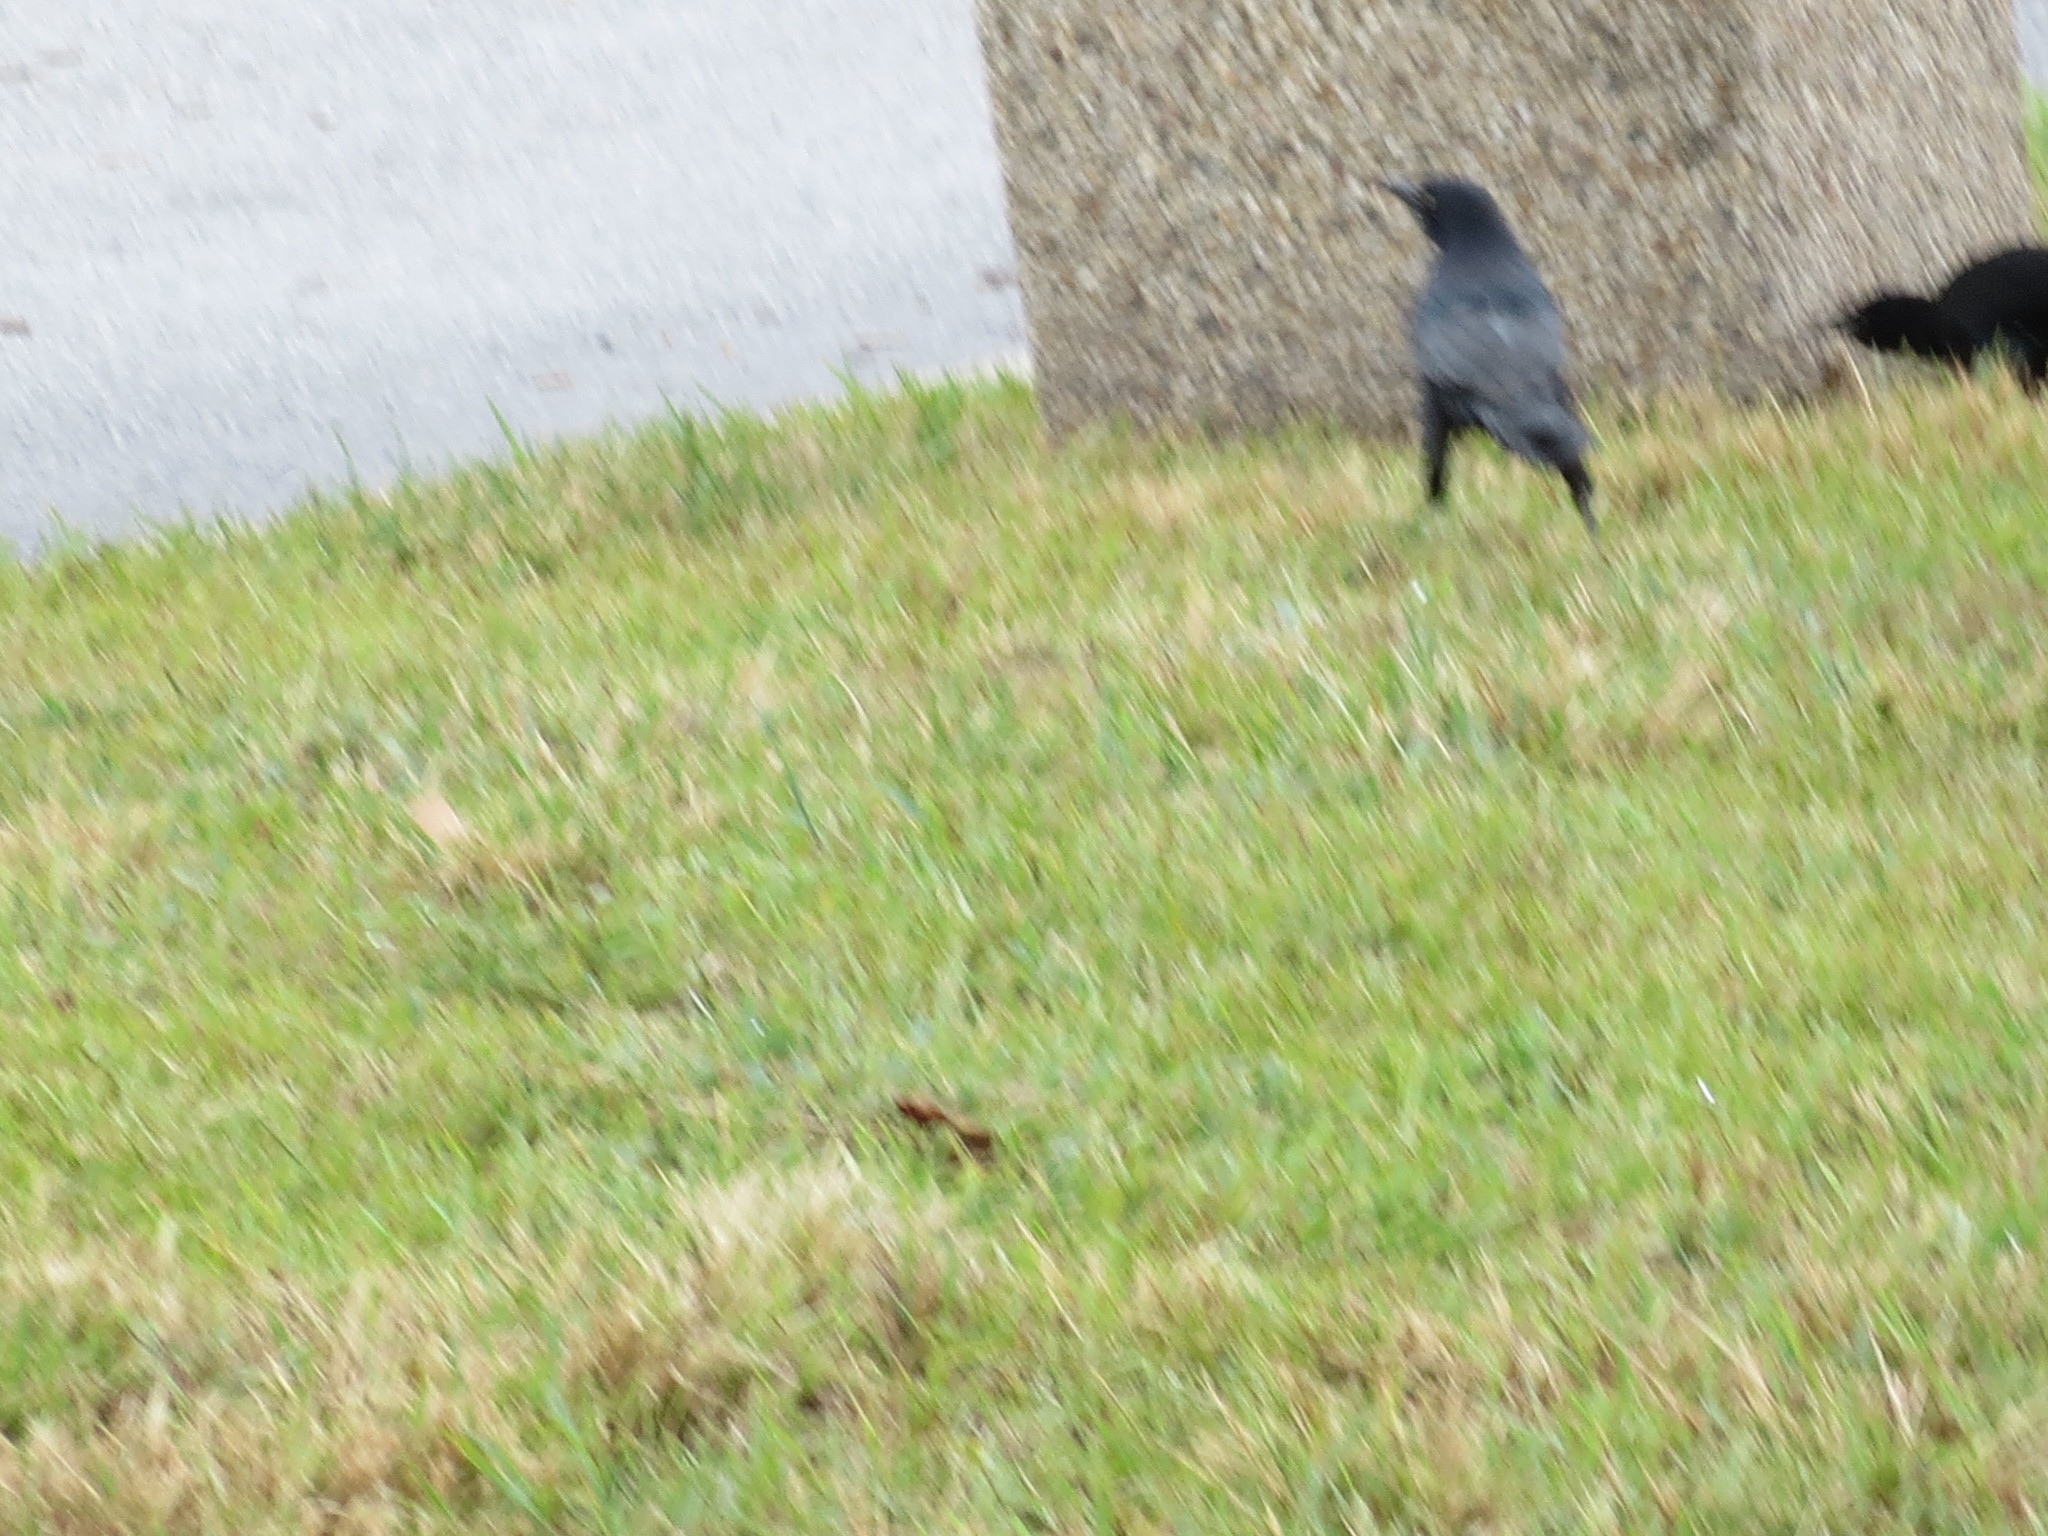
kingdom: Animalia
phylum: Chordata
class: Aves
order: Passeriformes
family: Icteridae
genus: Quiscalus
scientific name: Quiscalus major
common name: Boat-tailed grackle
